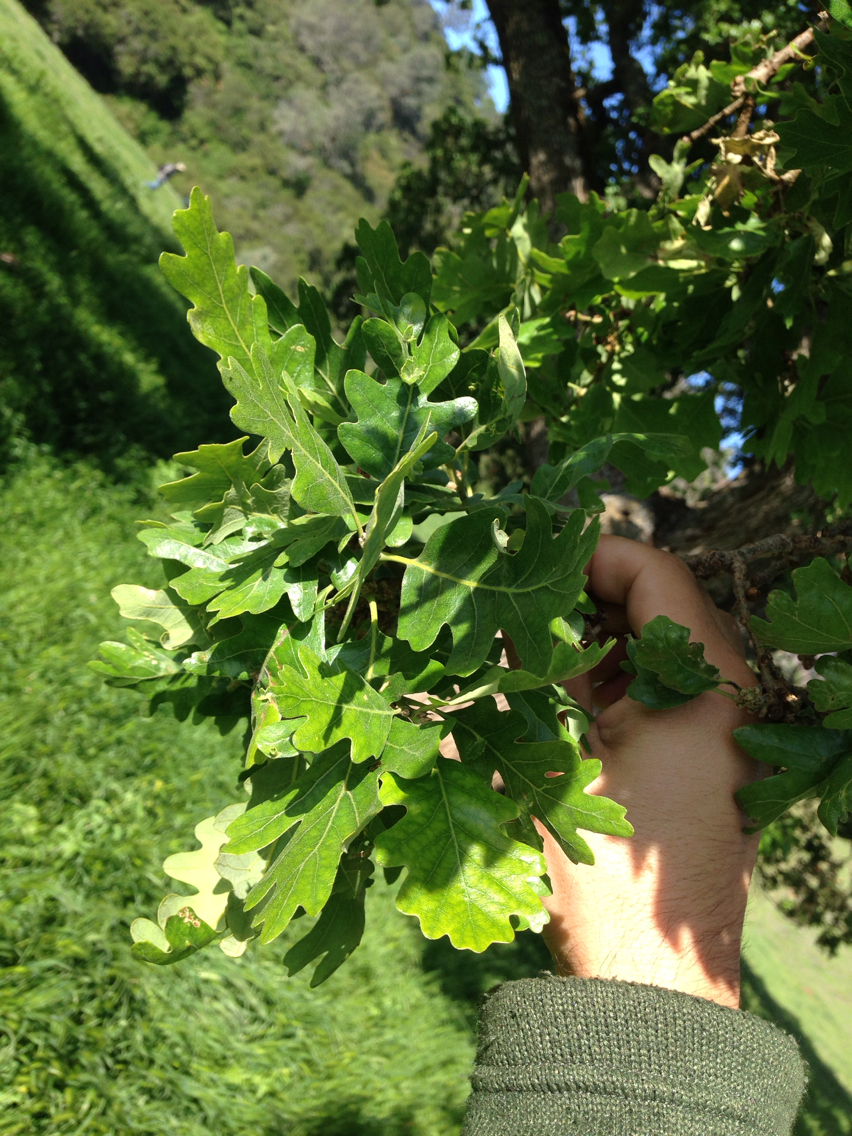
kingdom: Plantae
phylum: Tracheophyta
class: Magnoliopsida
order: Fagales
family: Fagaceae
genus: Quercus
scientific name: Quercus lobata
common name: Valley oak
